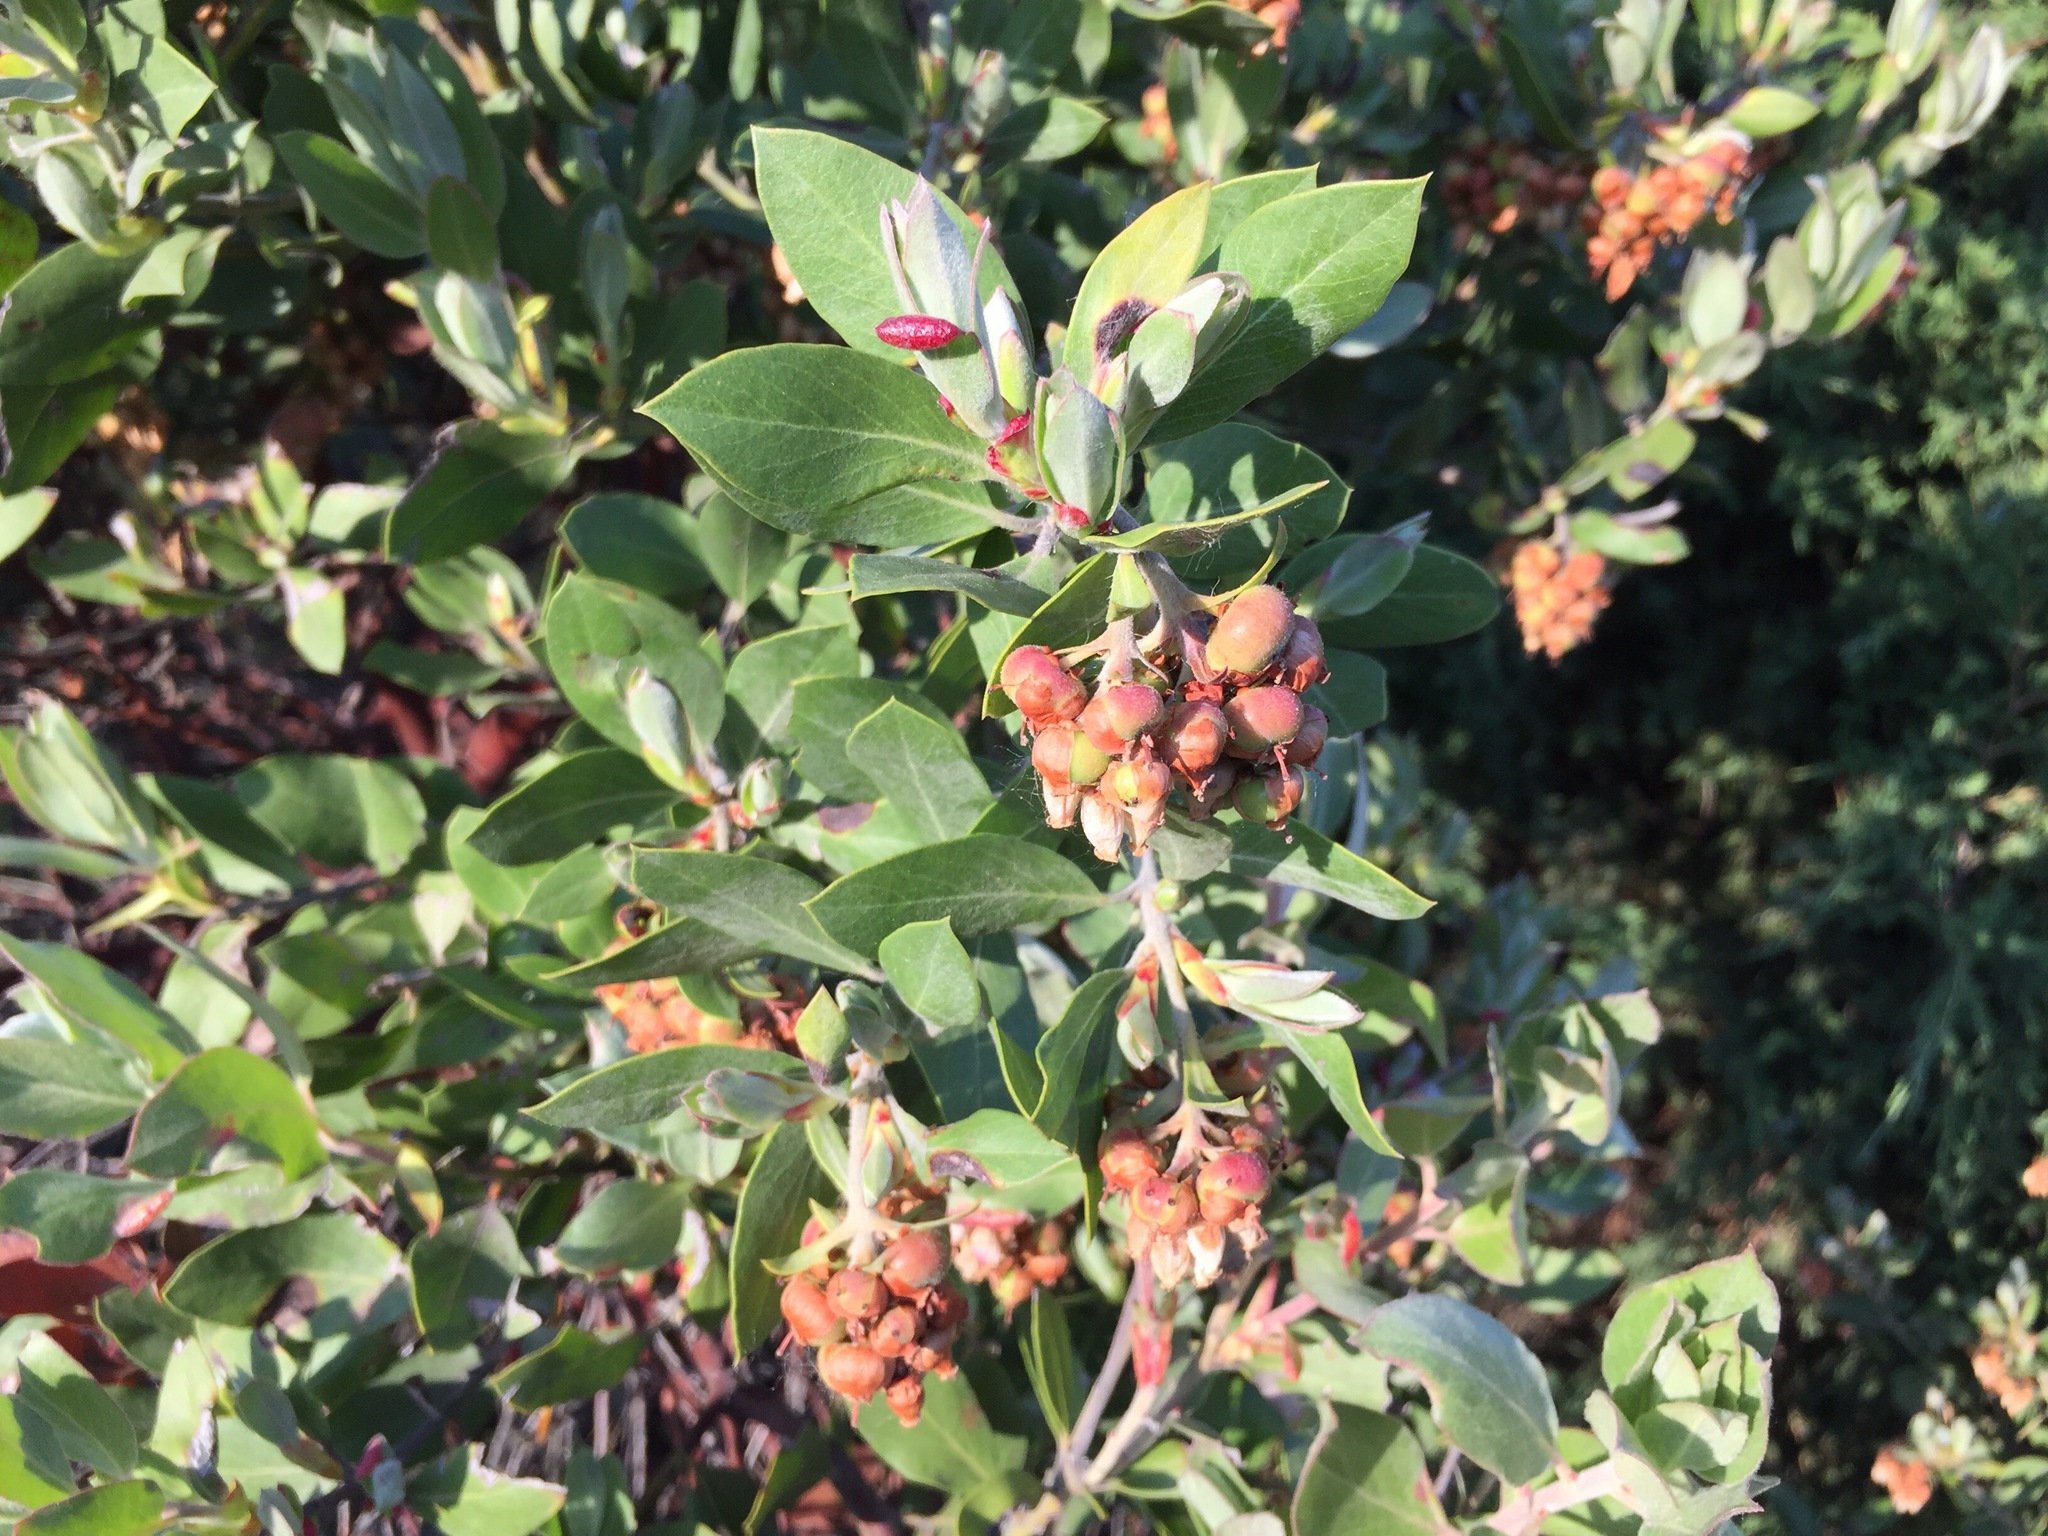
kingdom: Plantae
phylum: Tracheophyta
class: Magnoliopsida
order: Ericales
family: Ericaceae
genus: Arctostaphylos
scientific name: Arctostaphylos columbiana
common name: Bristly bearberry
